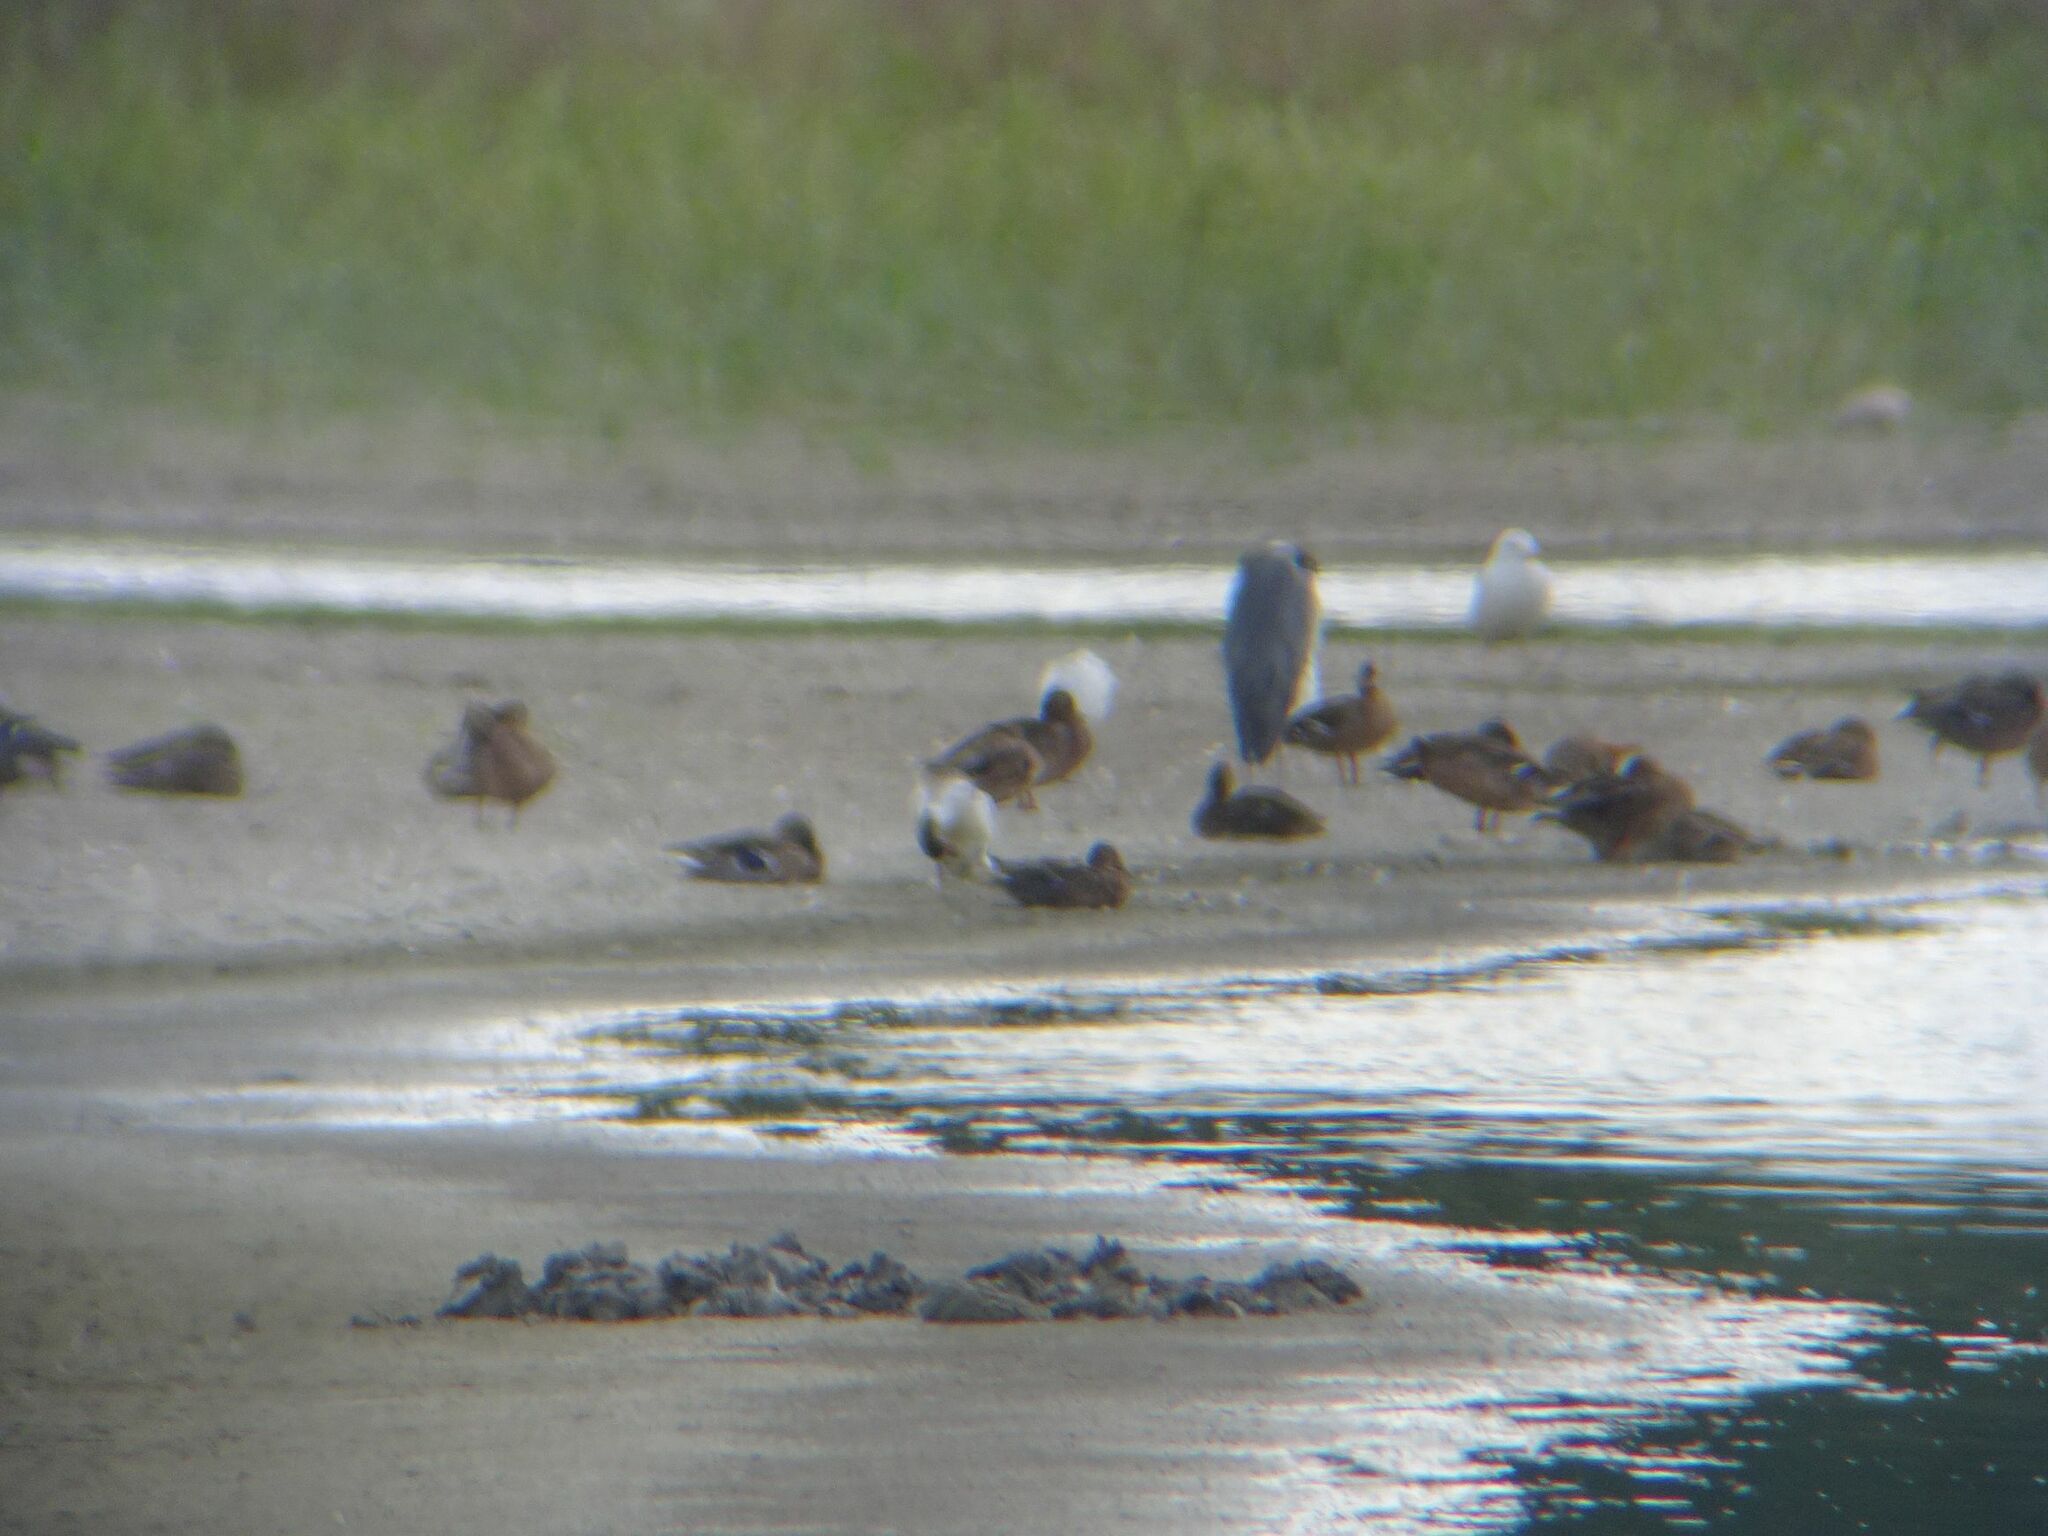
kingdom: Animalia
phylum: Chordata
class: Aves
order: Anseriformes
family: Anatidae
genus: Tadorna
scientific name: Tadorna tadorna
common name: Common shelduck
